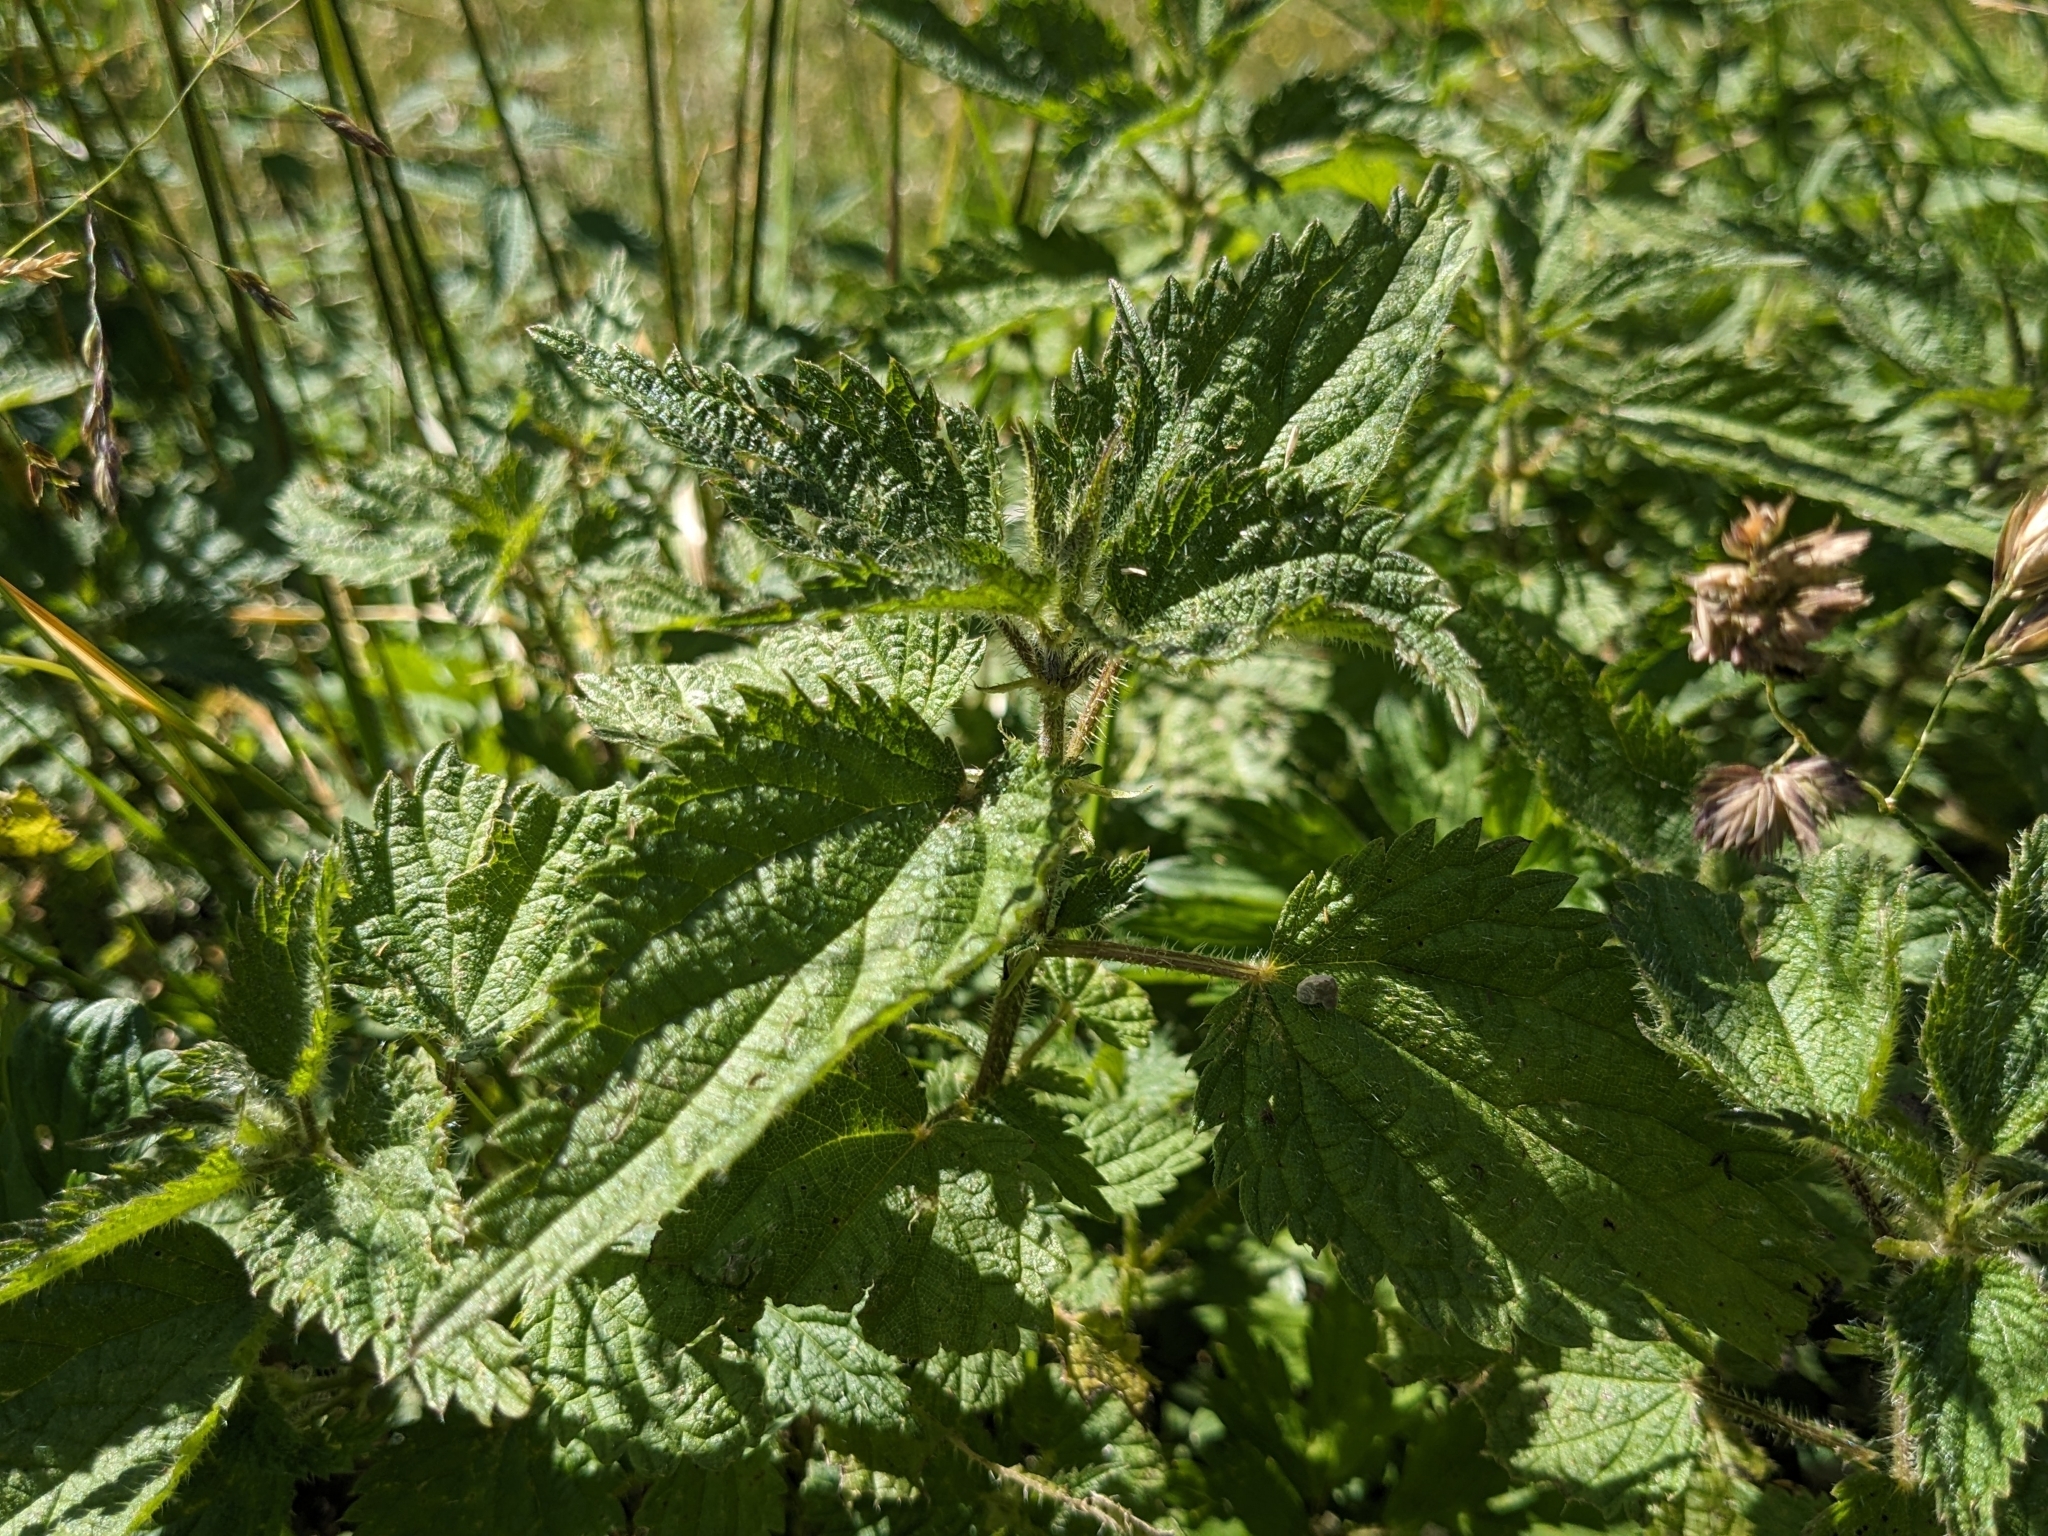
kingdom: Plantae
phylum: Tracheophyta
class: Magnoliopsida
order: Rosales
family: Urticaceae
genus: Urtica
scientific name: Urtica dioica
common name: Common nettle
